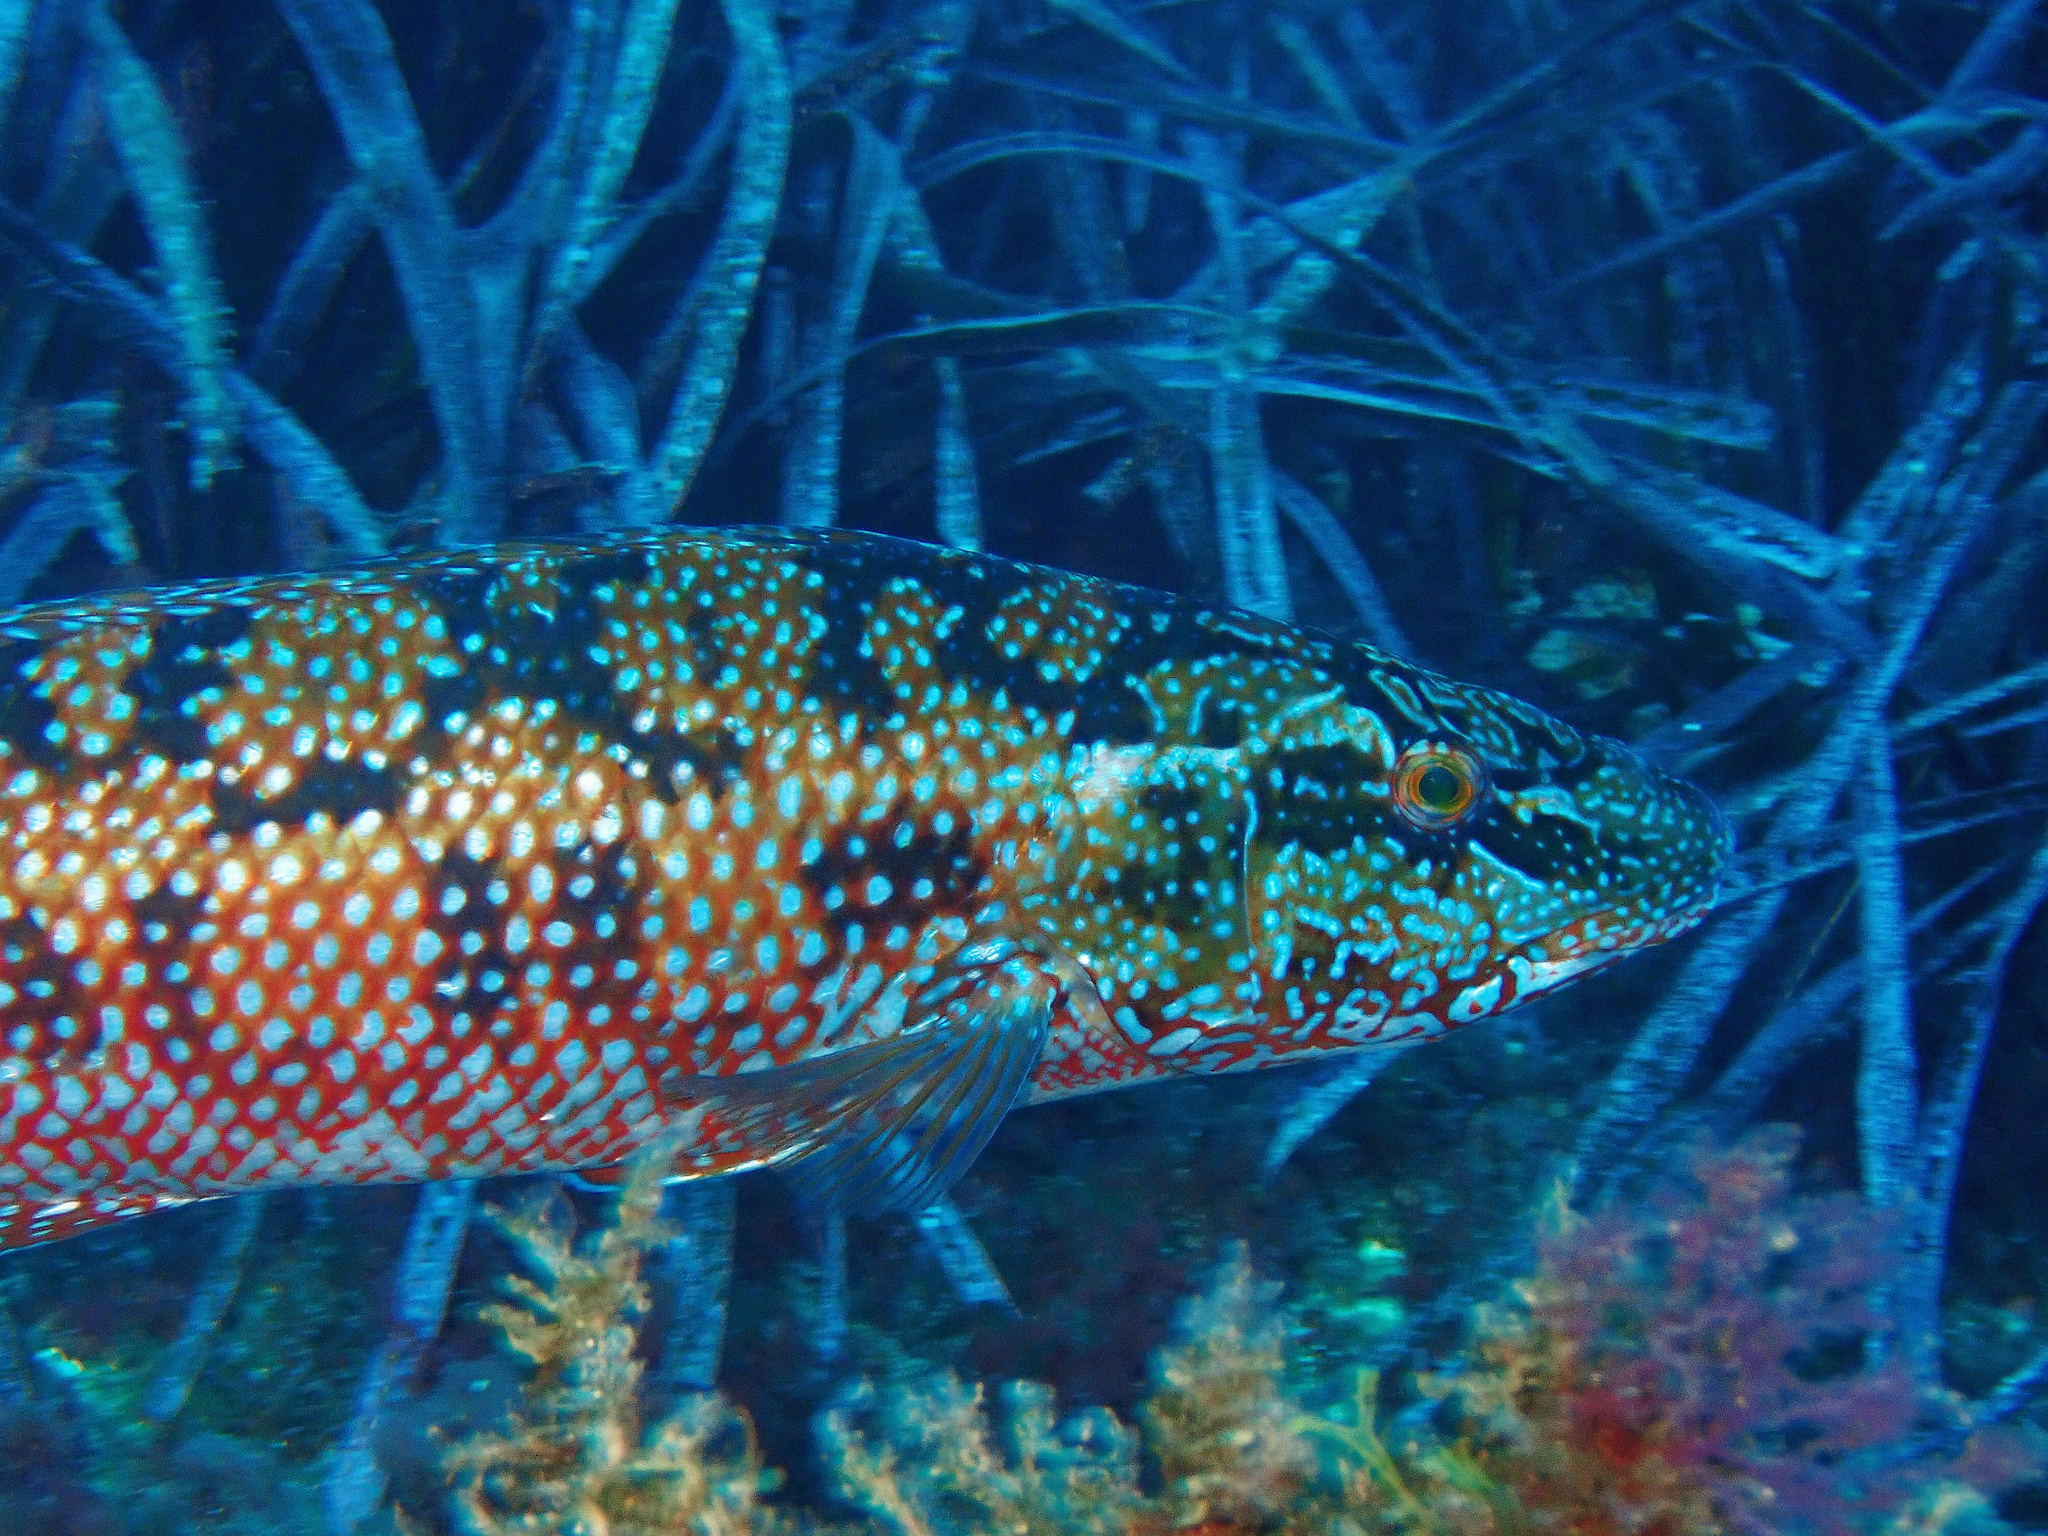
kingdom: Animalia
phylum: Chordata
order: Perciformes
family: Labridae
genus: Labrus
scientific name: Labrus viridis
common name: Green wrasse
